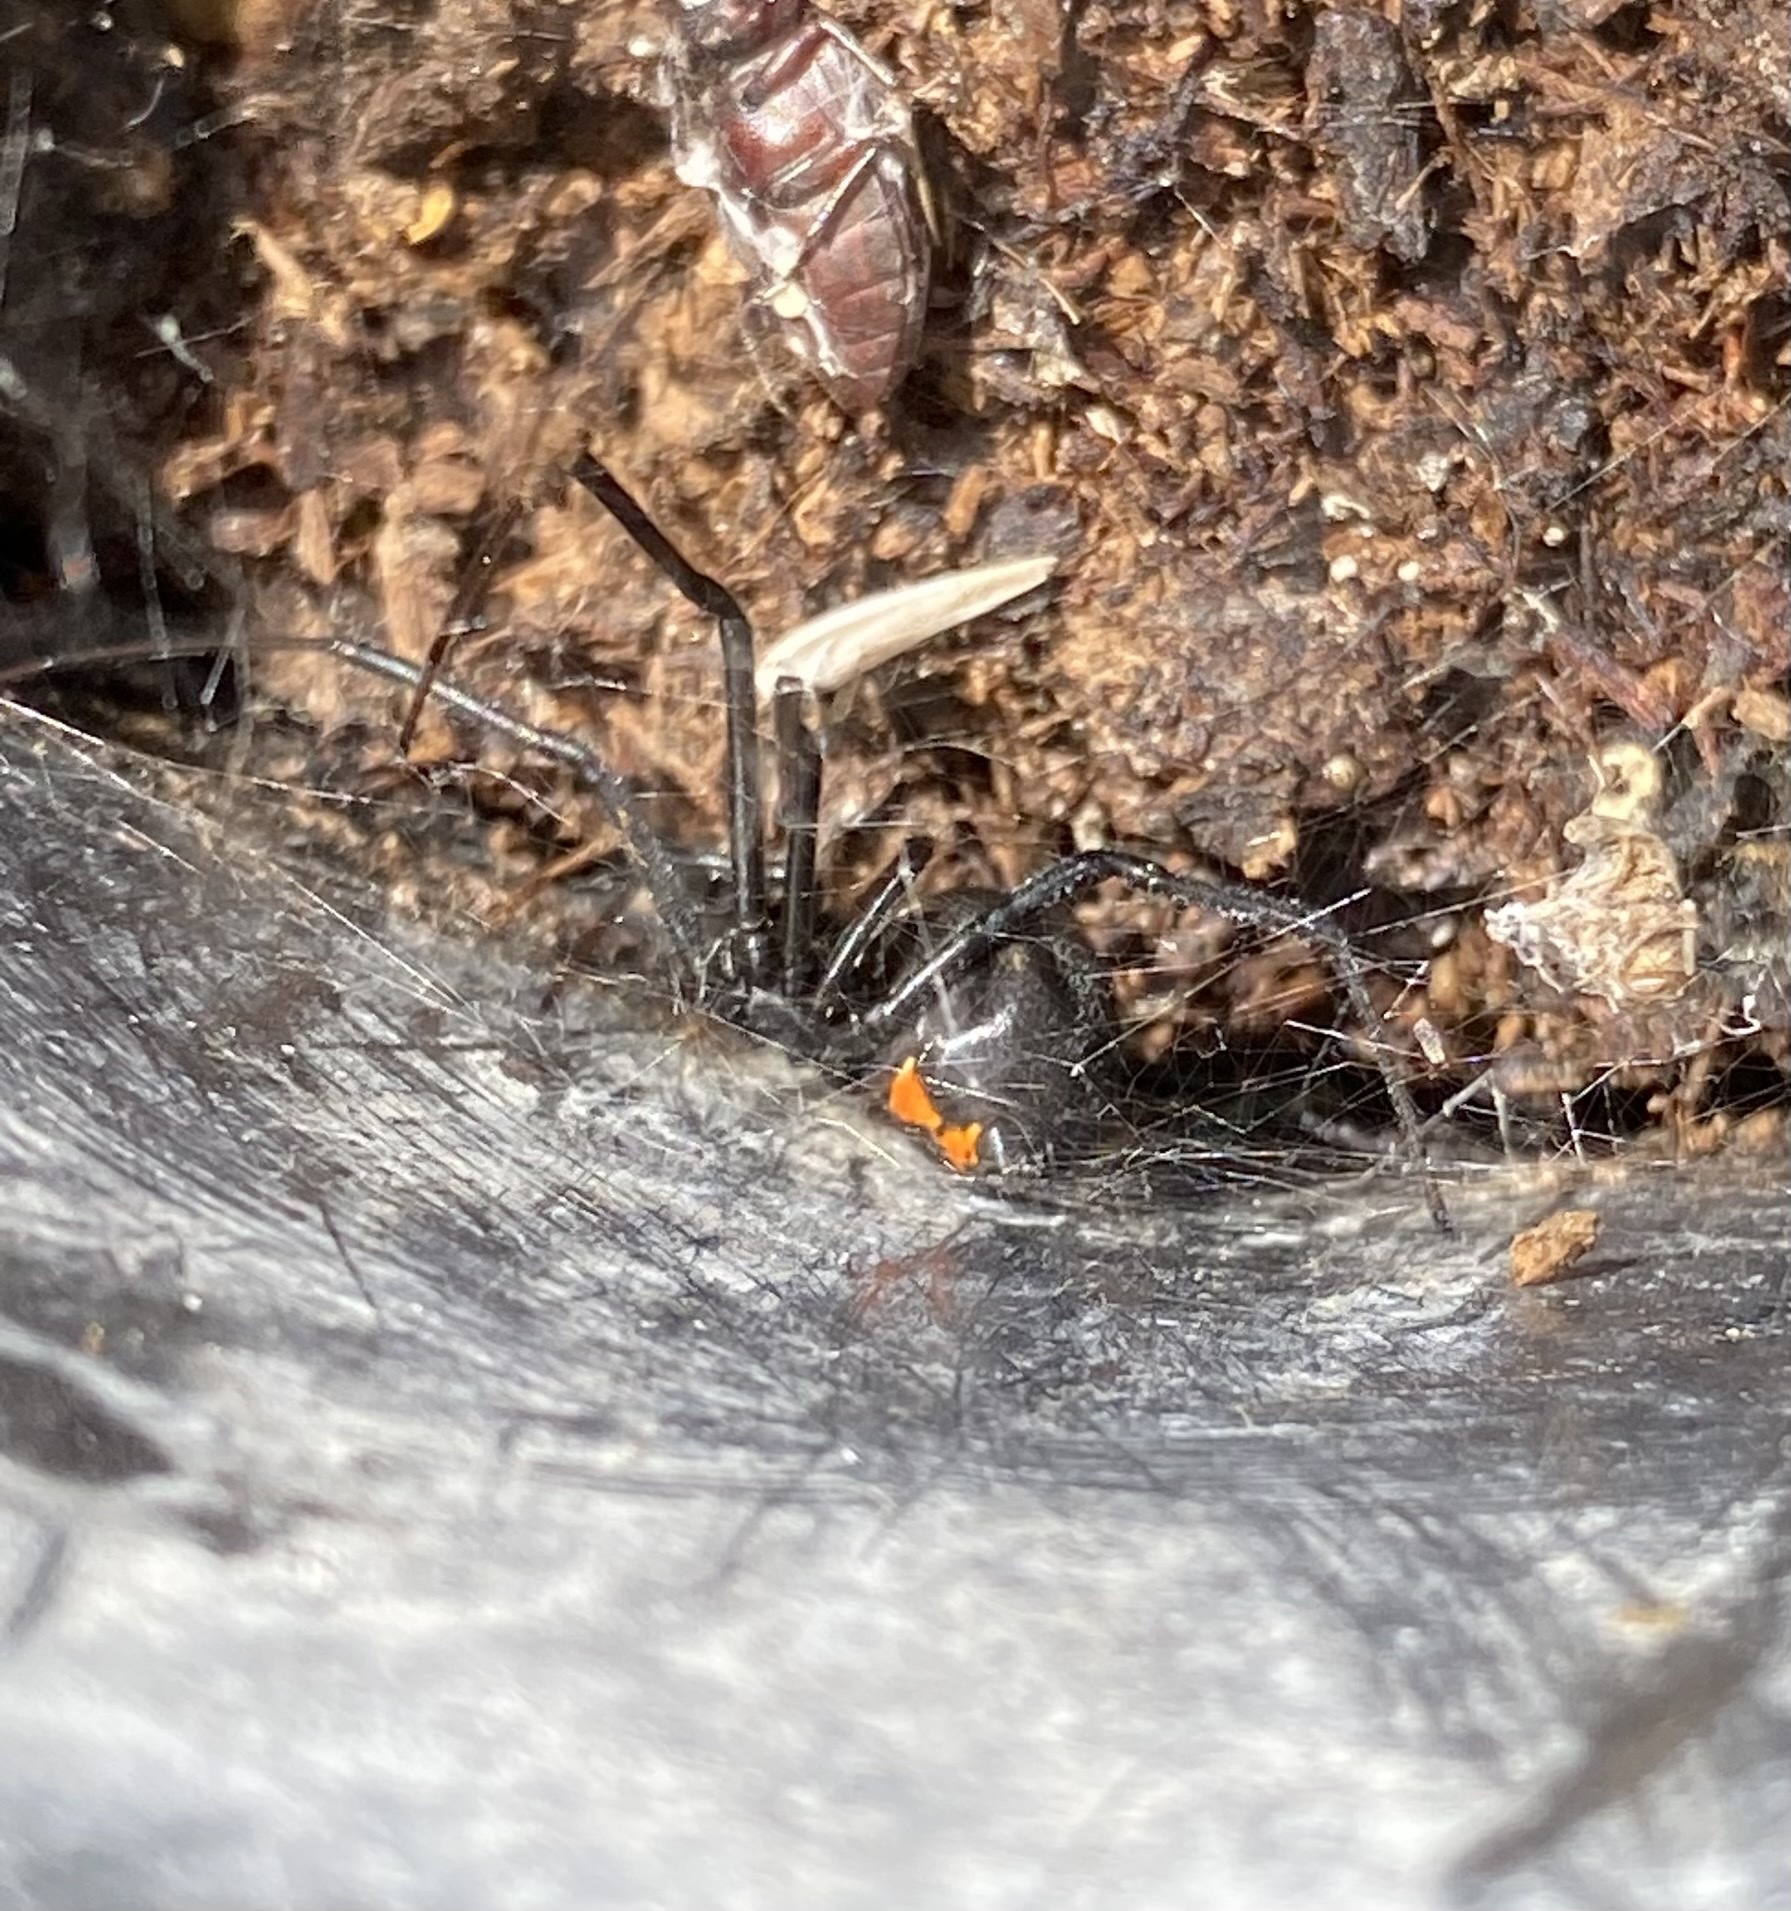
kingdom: Animalia
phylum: Arthropoda
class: Arachnida
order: Araneae
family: Theridiidae
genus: Latrodectus
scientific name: Latrodectus hesperus
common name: Western black widow
